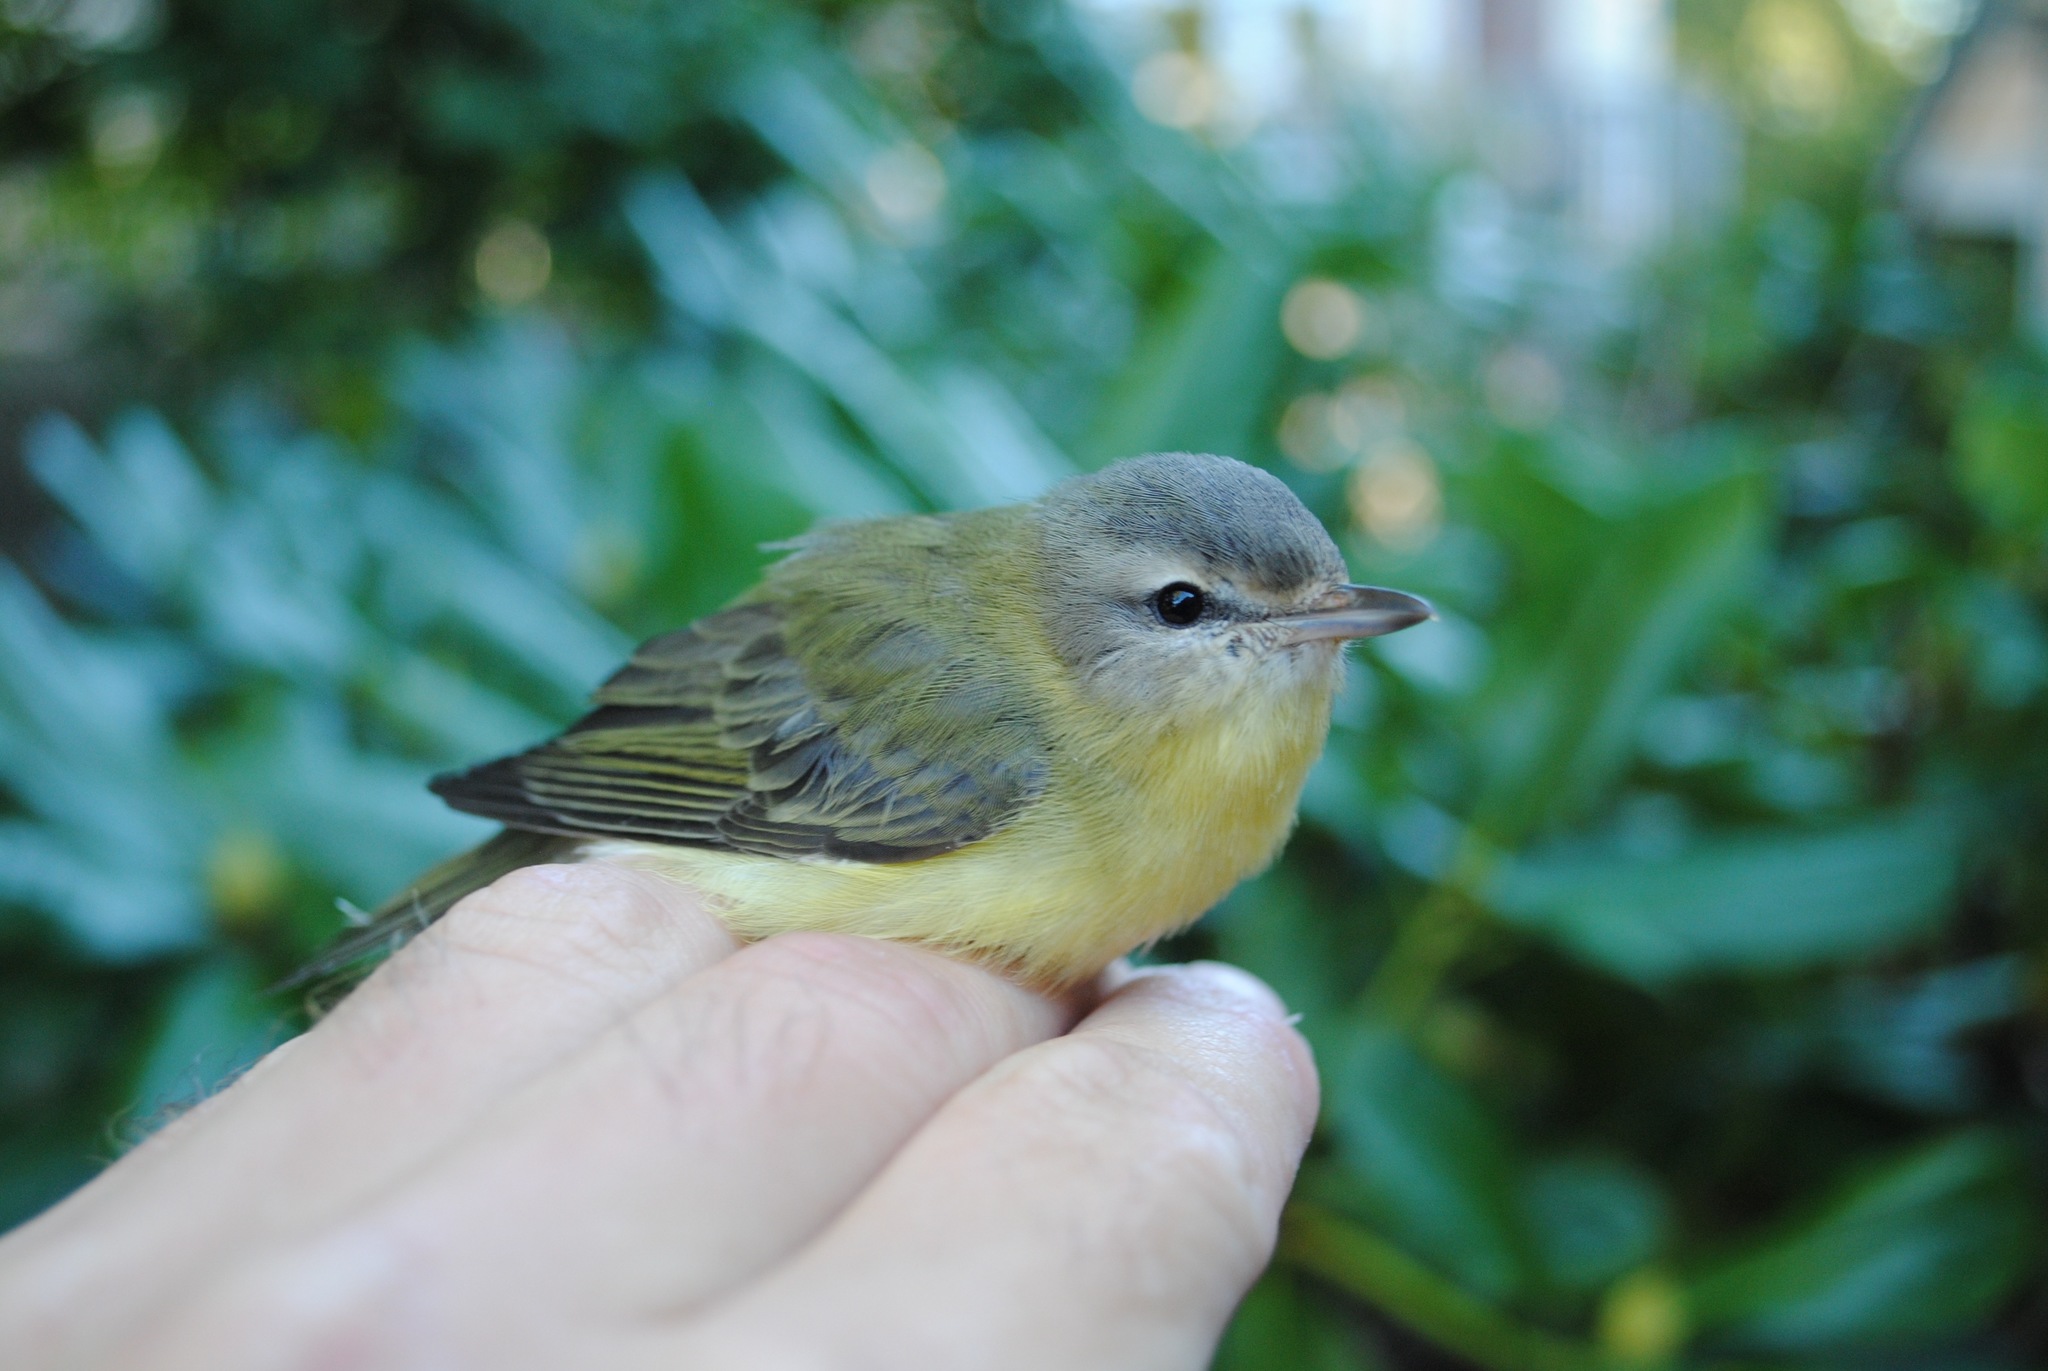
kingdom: Animalia
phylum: Chordata
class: Aves
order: Passeriformes
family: Vireonidae
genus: Vireo
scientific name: Vireo philadelphicus
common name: Philadelphia vireo
